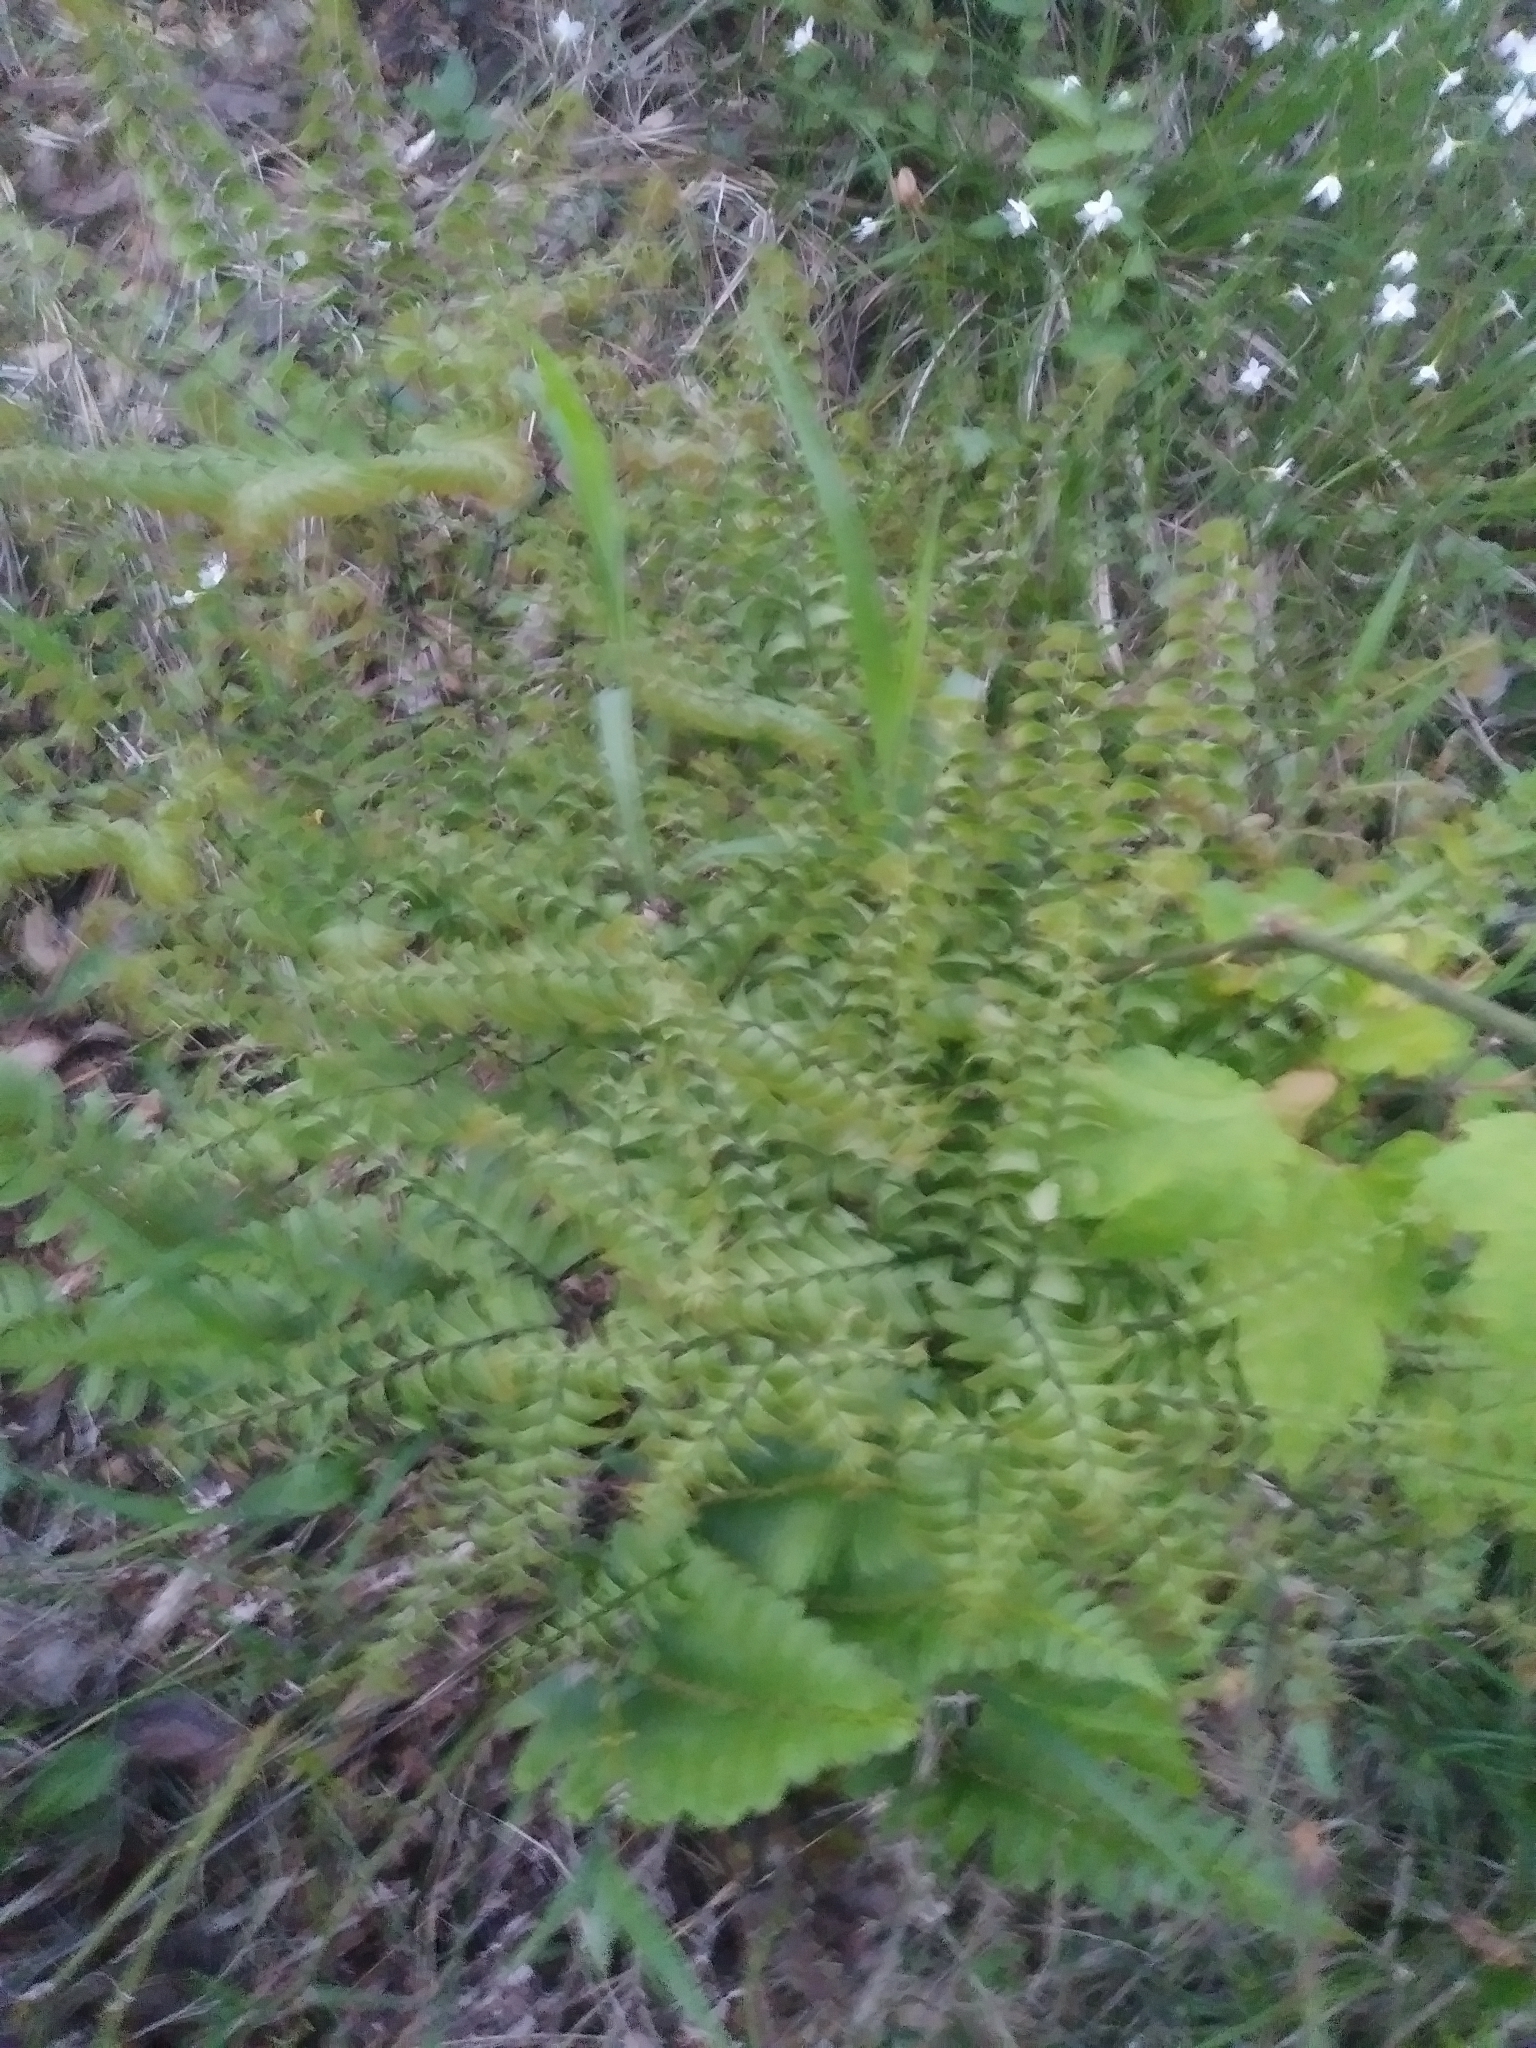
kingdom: Plantae
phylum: Tracheophyta
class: Polypodiopsida
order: Polypodiales
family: Pteridaceae
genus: Adiantum
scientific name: Adiantum pedatum
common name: Five-finger fern
